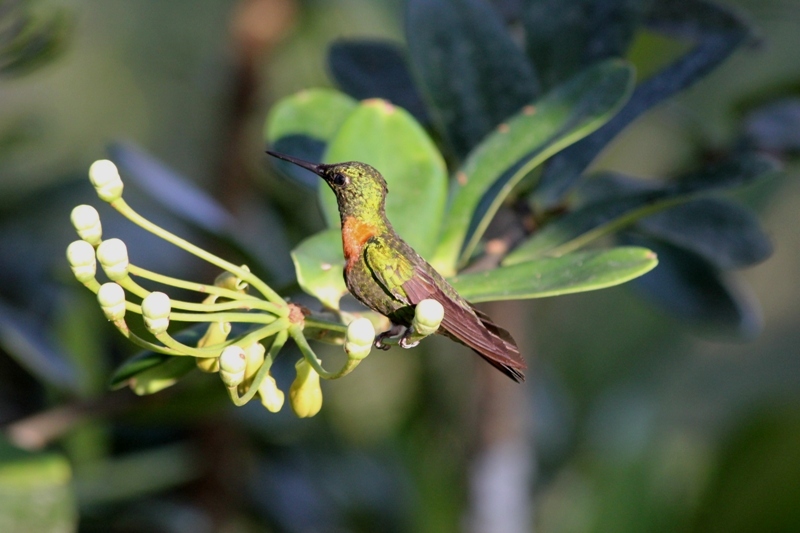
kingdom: Animalia
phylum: Chordata
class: Aves
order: Apodiformes
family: Trochilidae
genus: Heliodoxa
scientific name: Heliodoxa aurescens
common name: Gould's jewelfront
